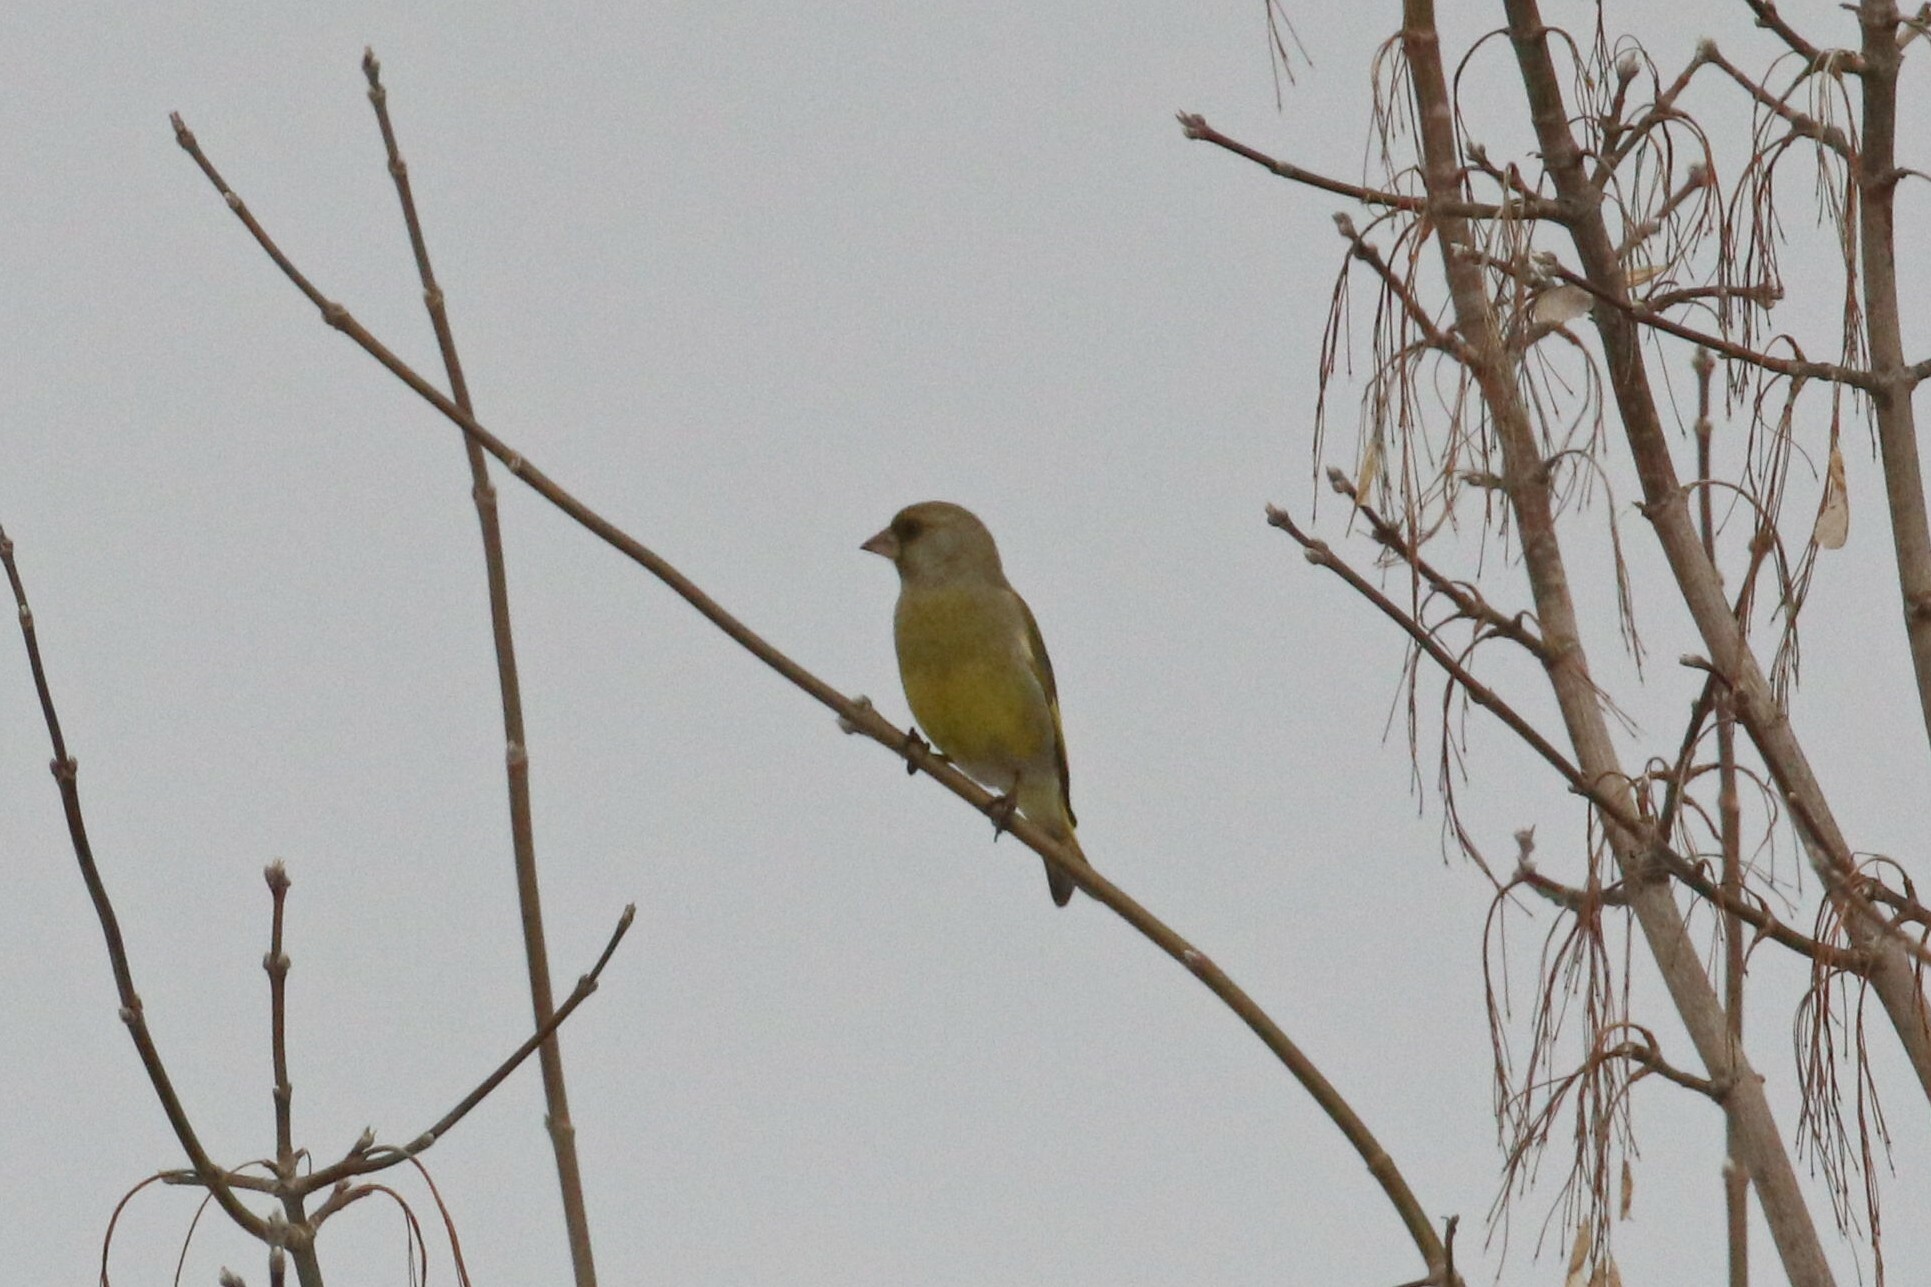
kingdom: Plantae
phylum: Tracheophyta
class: Liliopsida
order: Poales
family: Poaceae
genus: Chloris
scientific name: Chloris chloris
